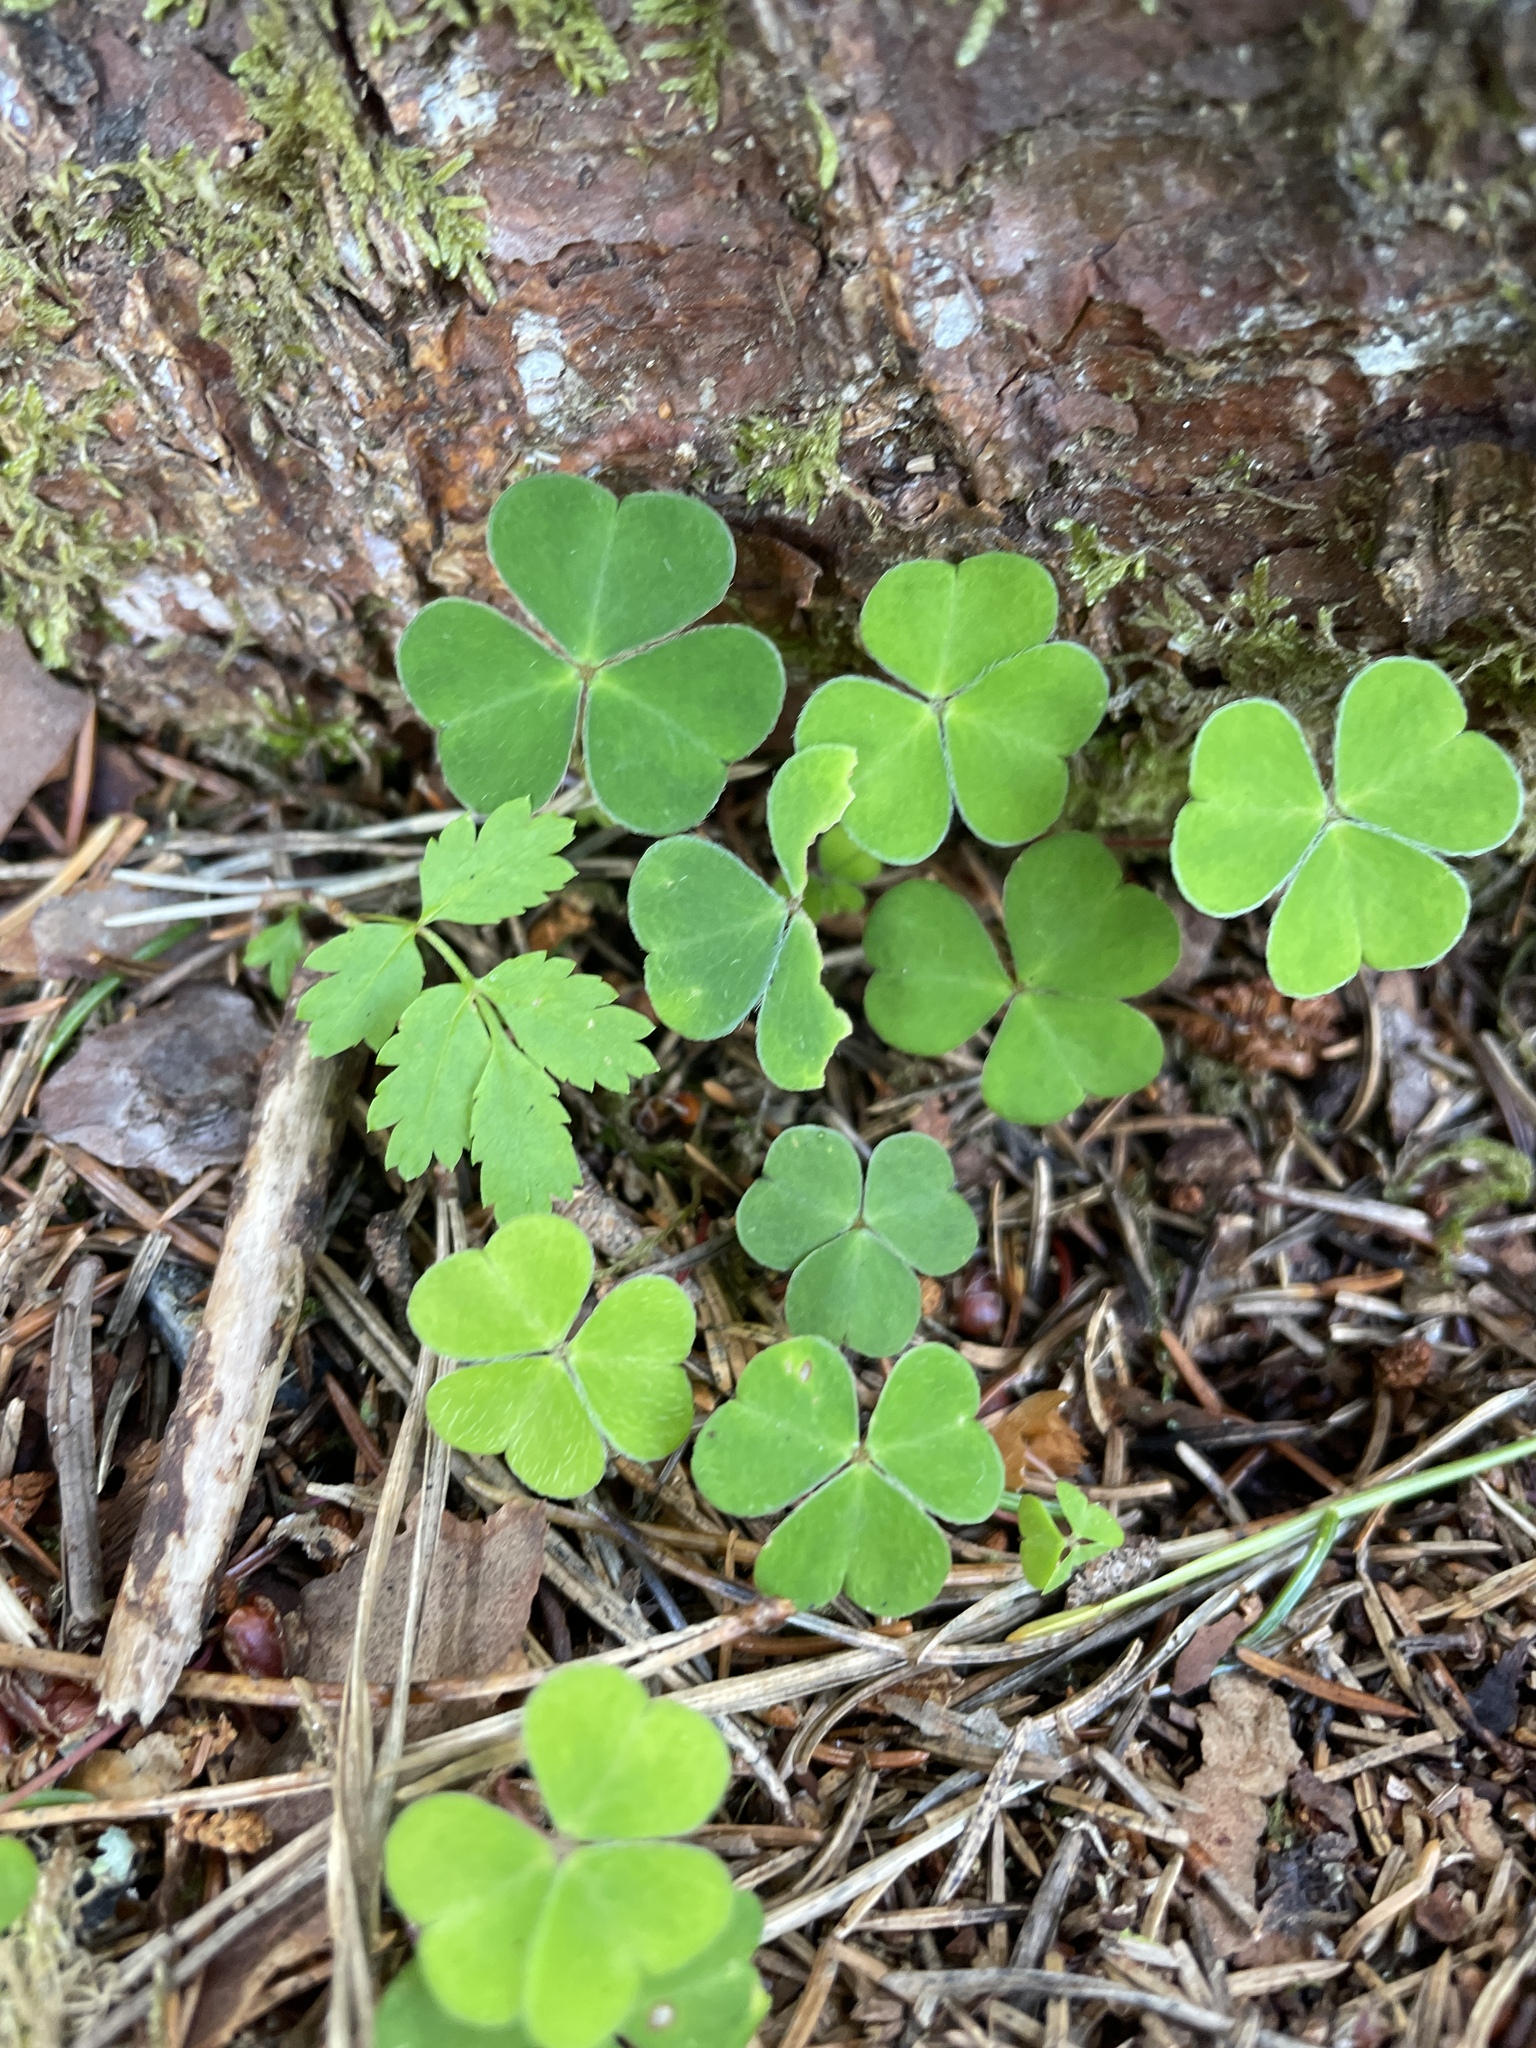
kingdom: Plantae
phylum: Tracheophyta
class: Magnoliopsida
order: Oxalidales
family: Oxalidaceae
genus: Oxalis
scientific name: Oxalis acetosella
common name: Wood-sorrel
